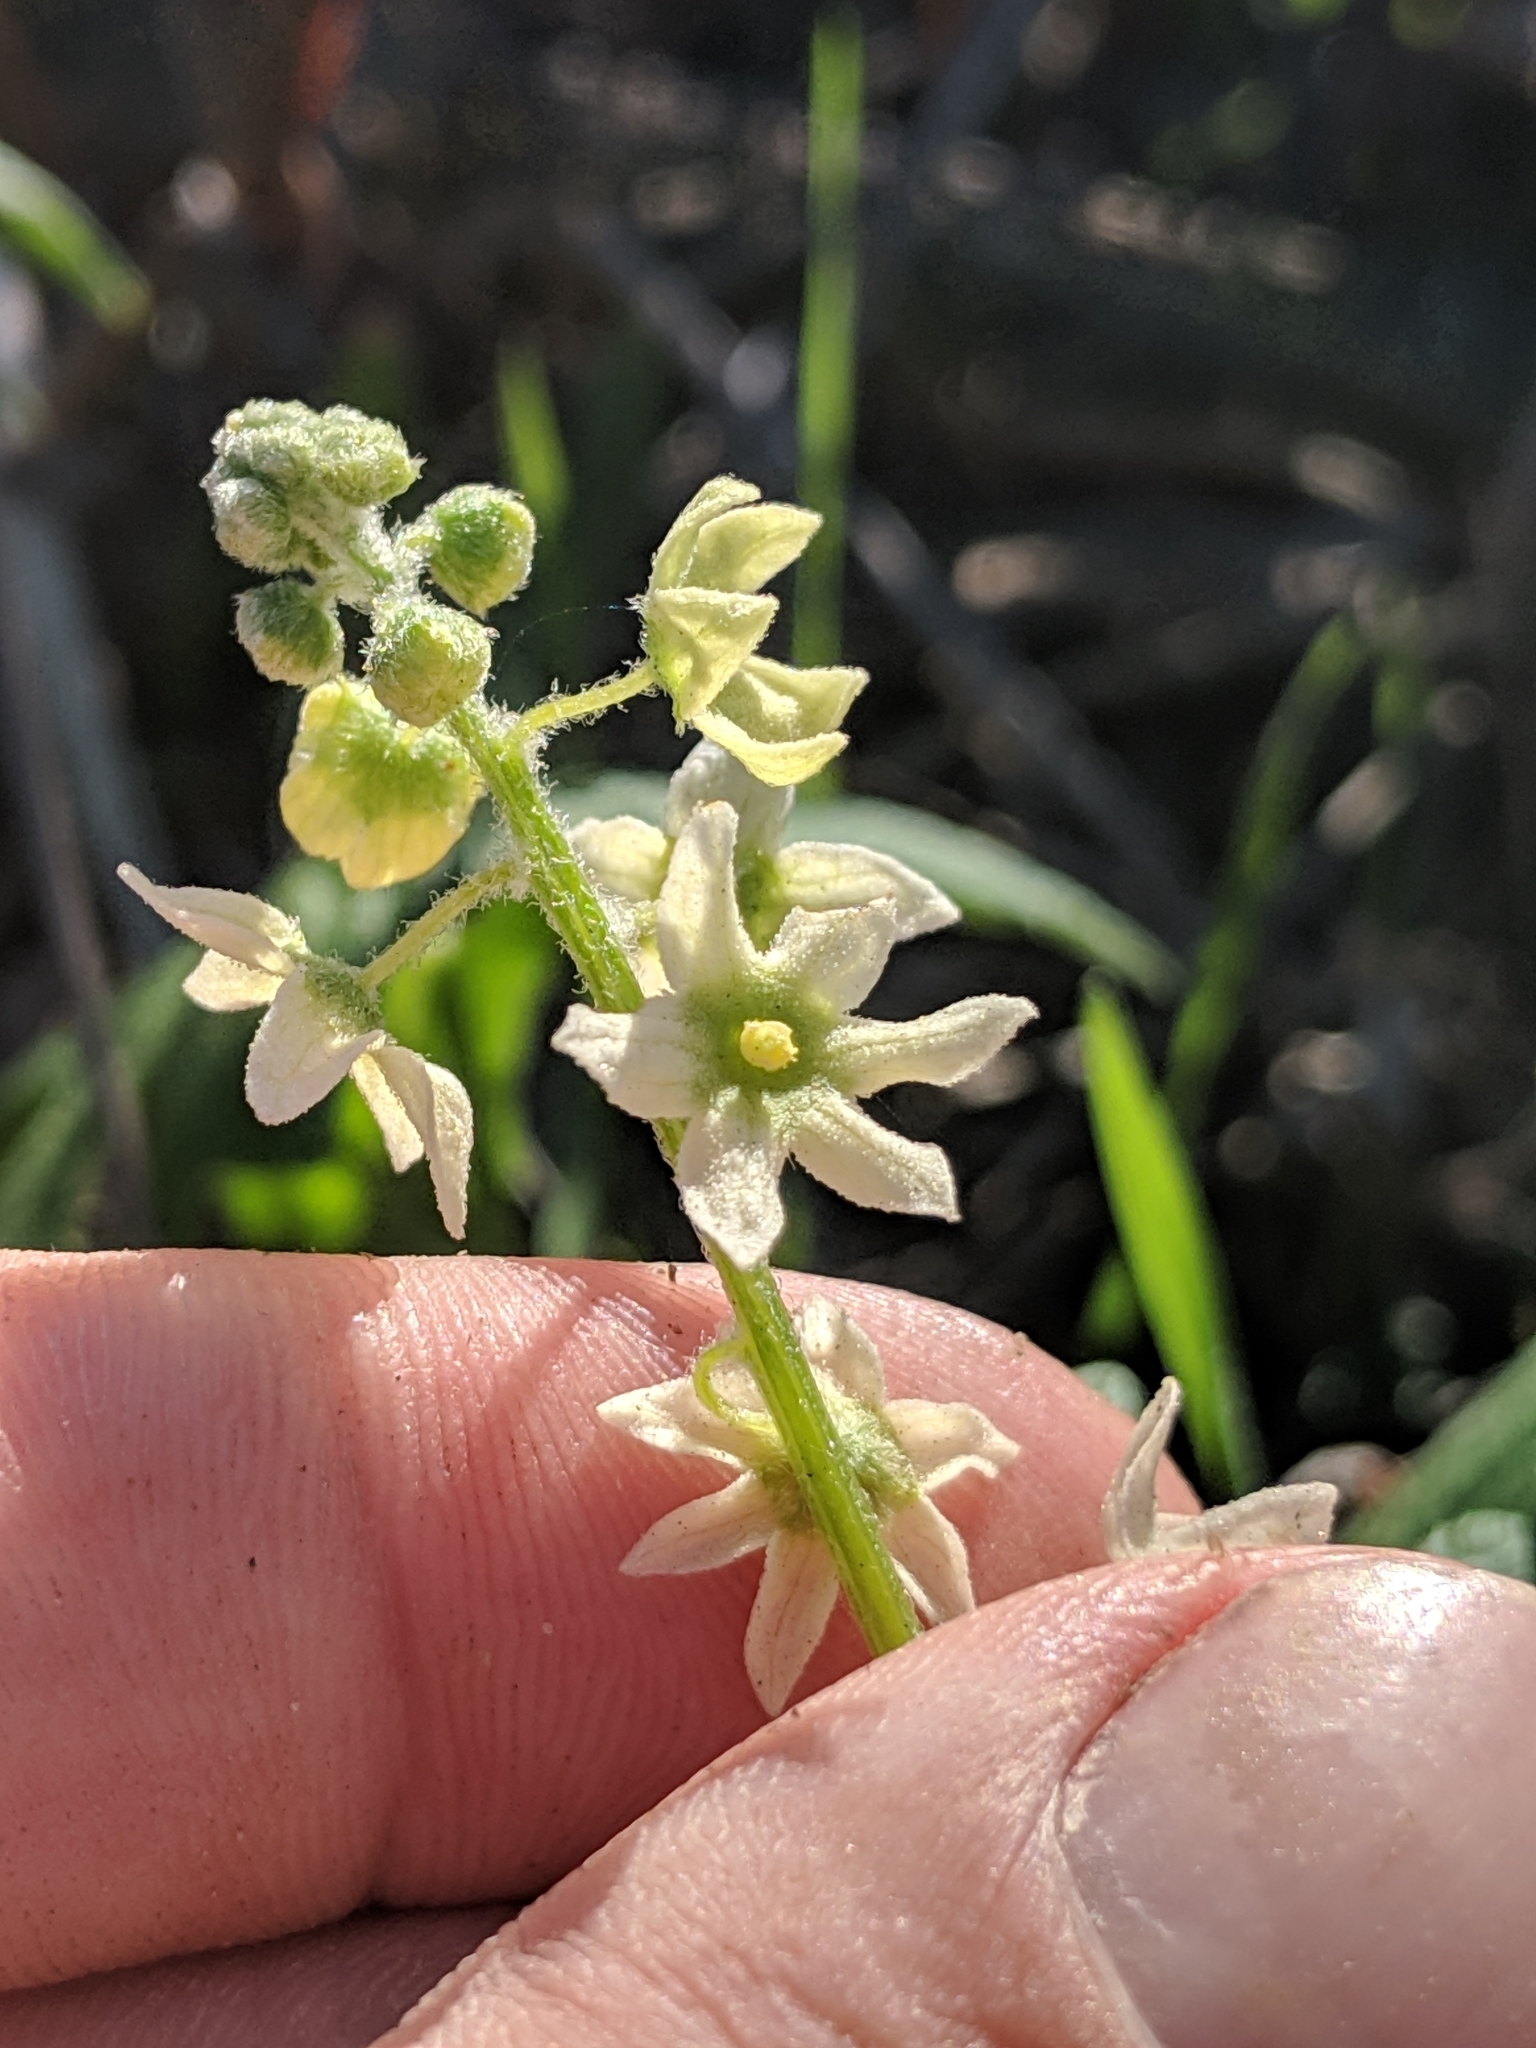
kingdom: Plantae
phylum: Tracheophyta
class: Magnoliopsida
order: Cucurbitales
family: Cucurbitaceae
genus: Marah
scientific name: Marah fabacea
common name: California manroot
